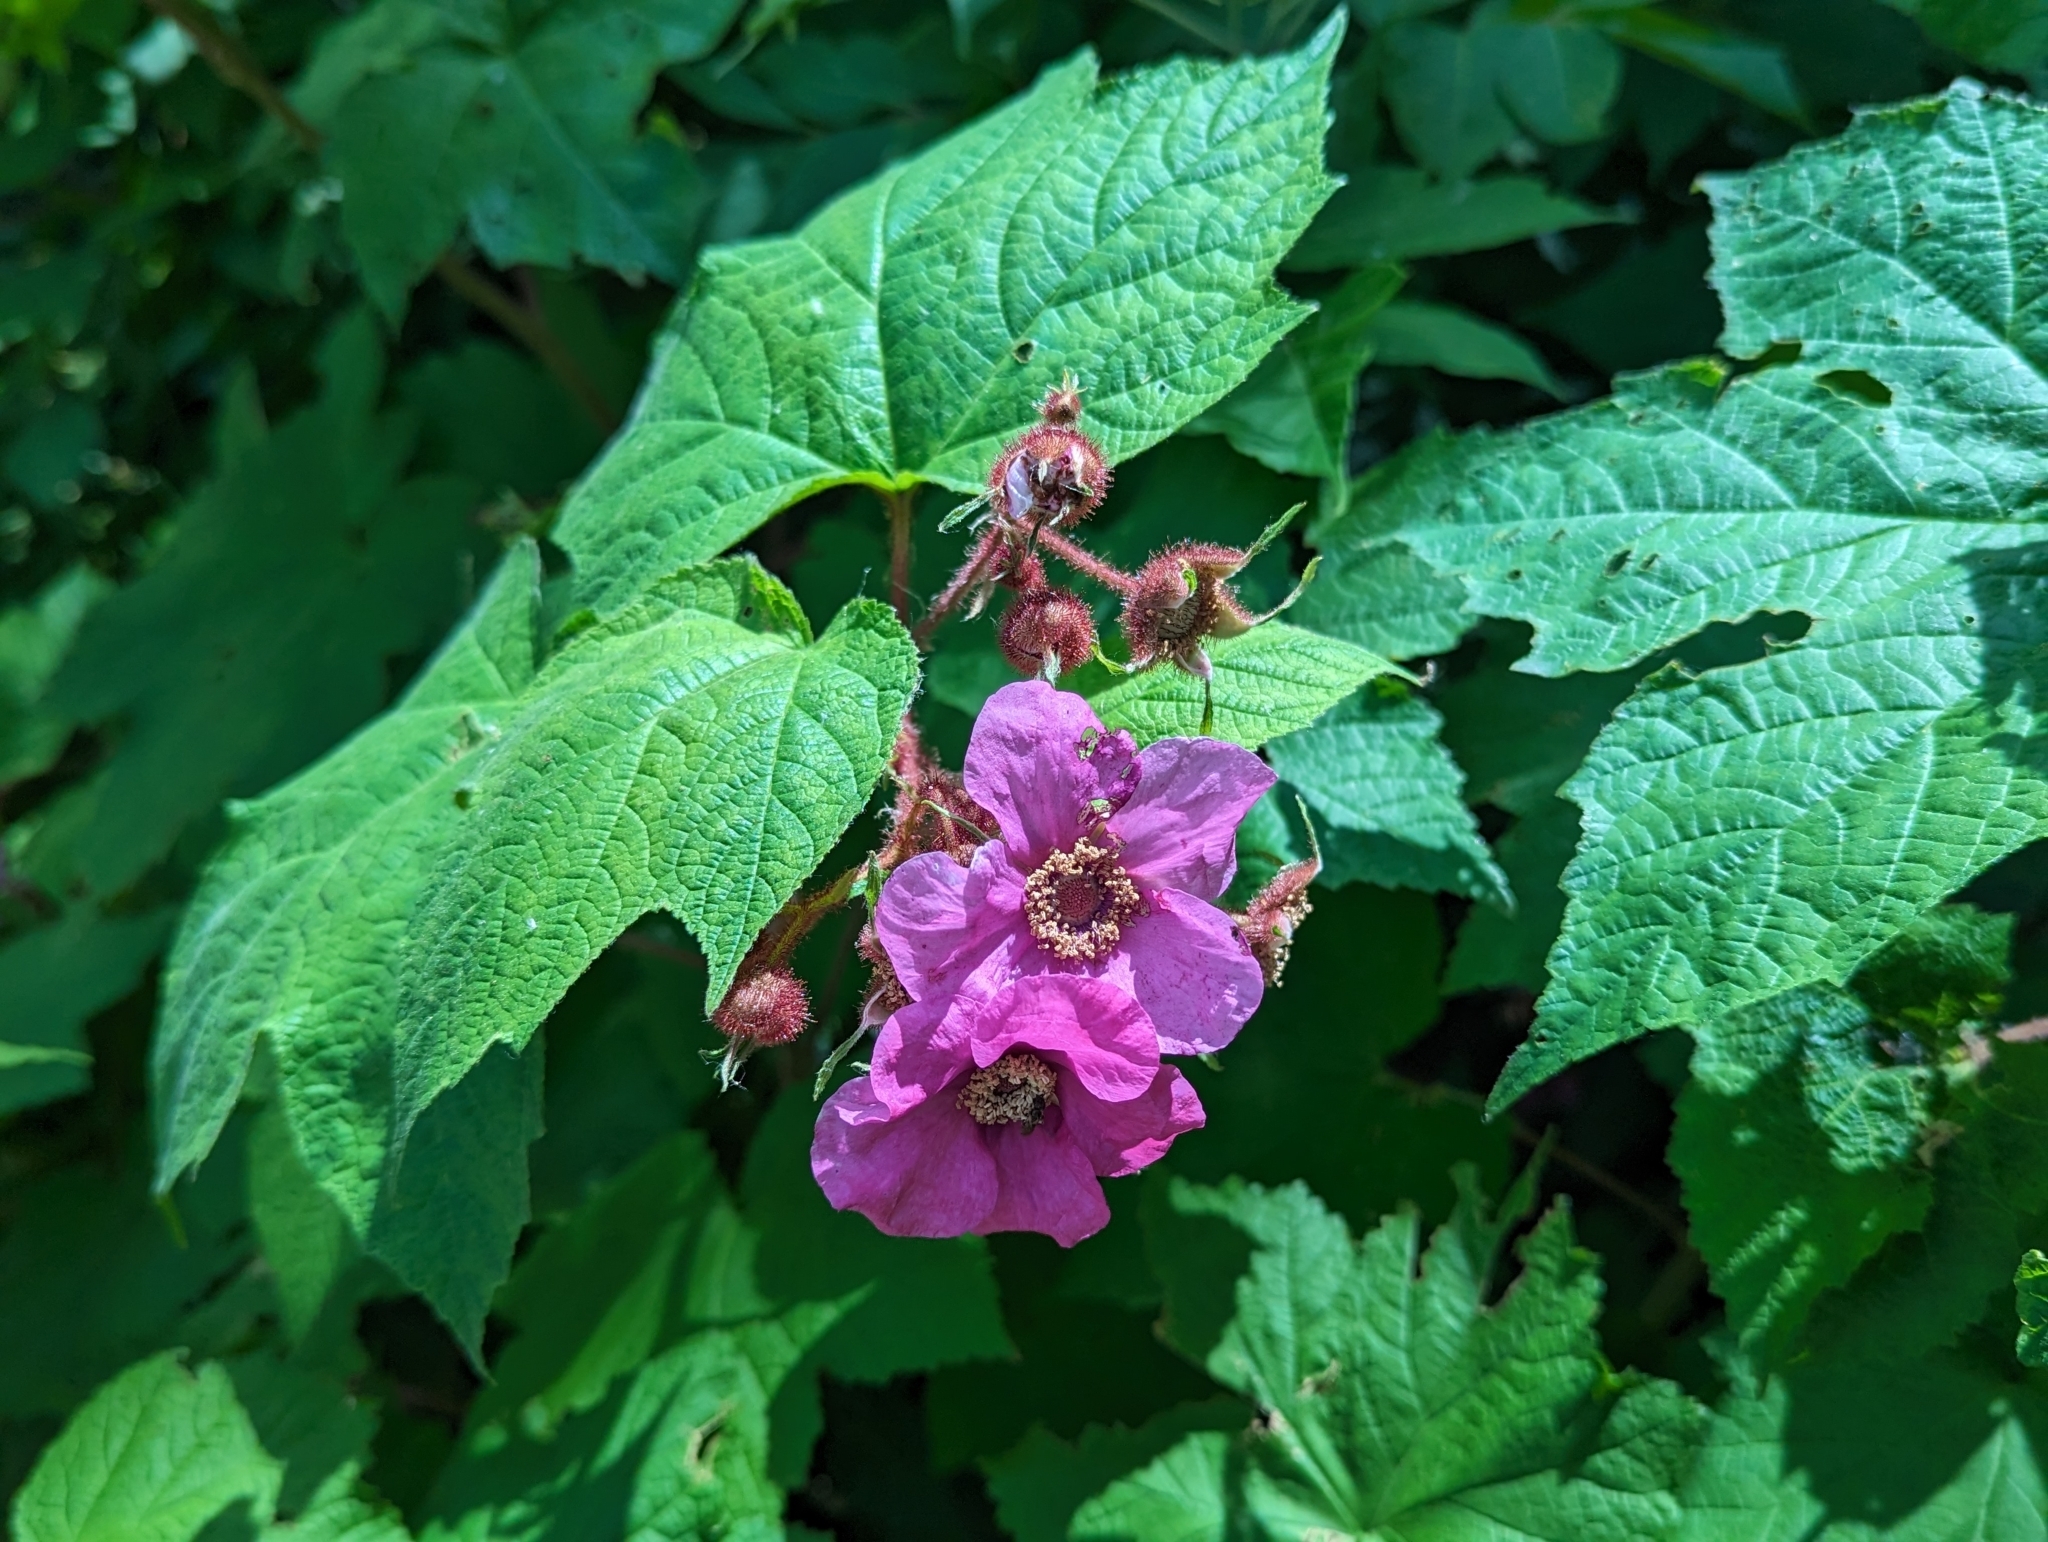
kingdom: Plantae
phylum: Tracheophyta
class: Magnoliopsida
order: Rosales
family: Rosaceae
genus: Rubus
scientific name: Rubus odoratus
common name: Purple-flowered raspberry
